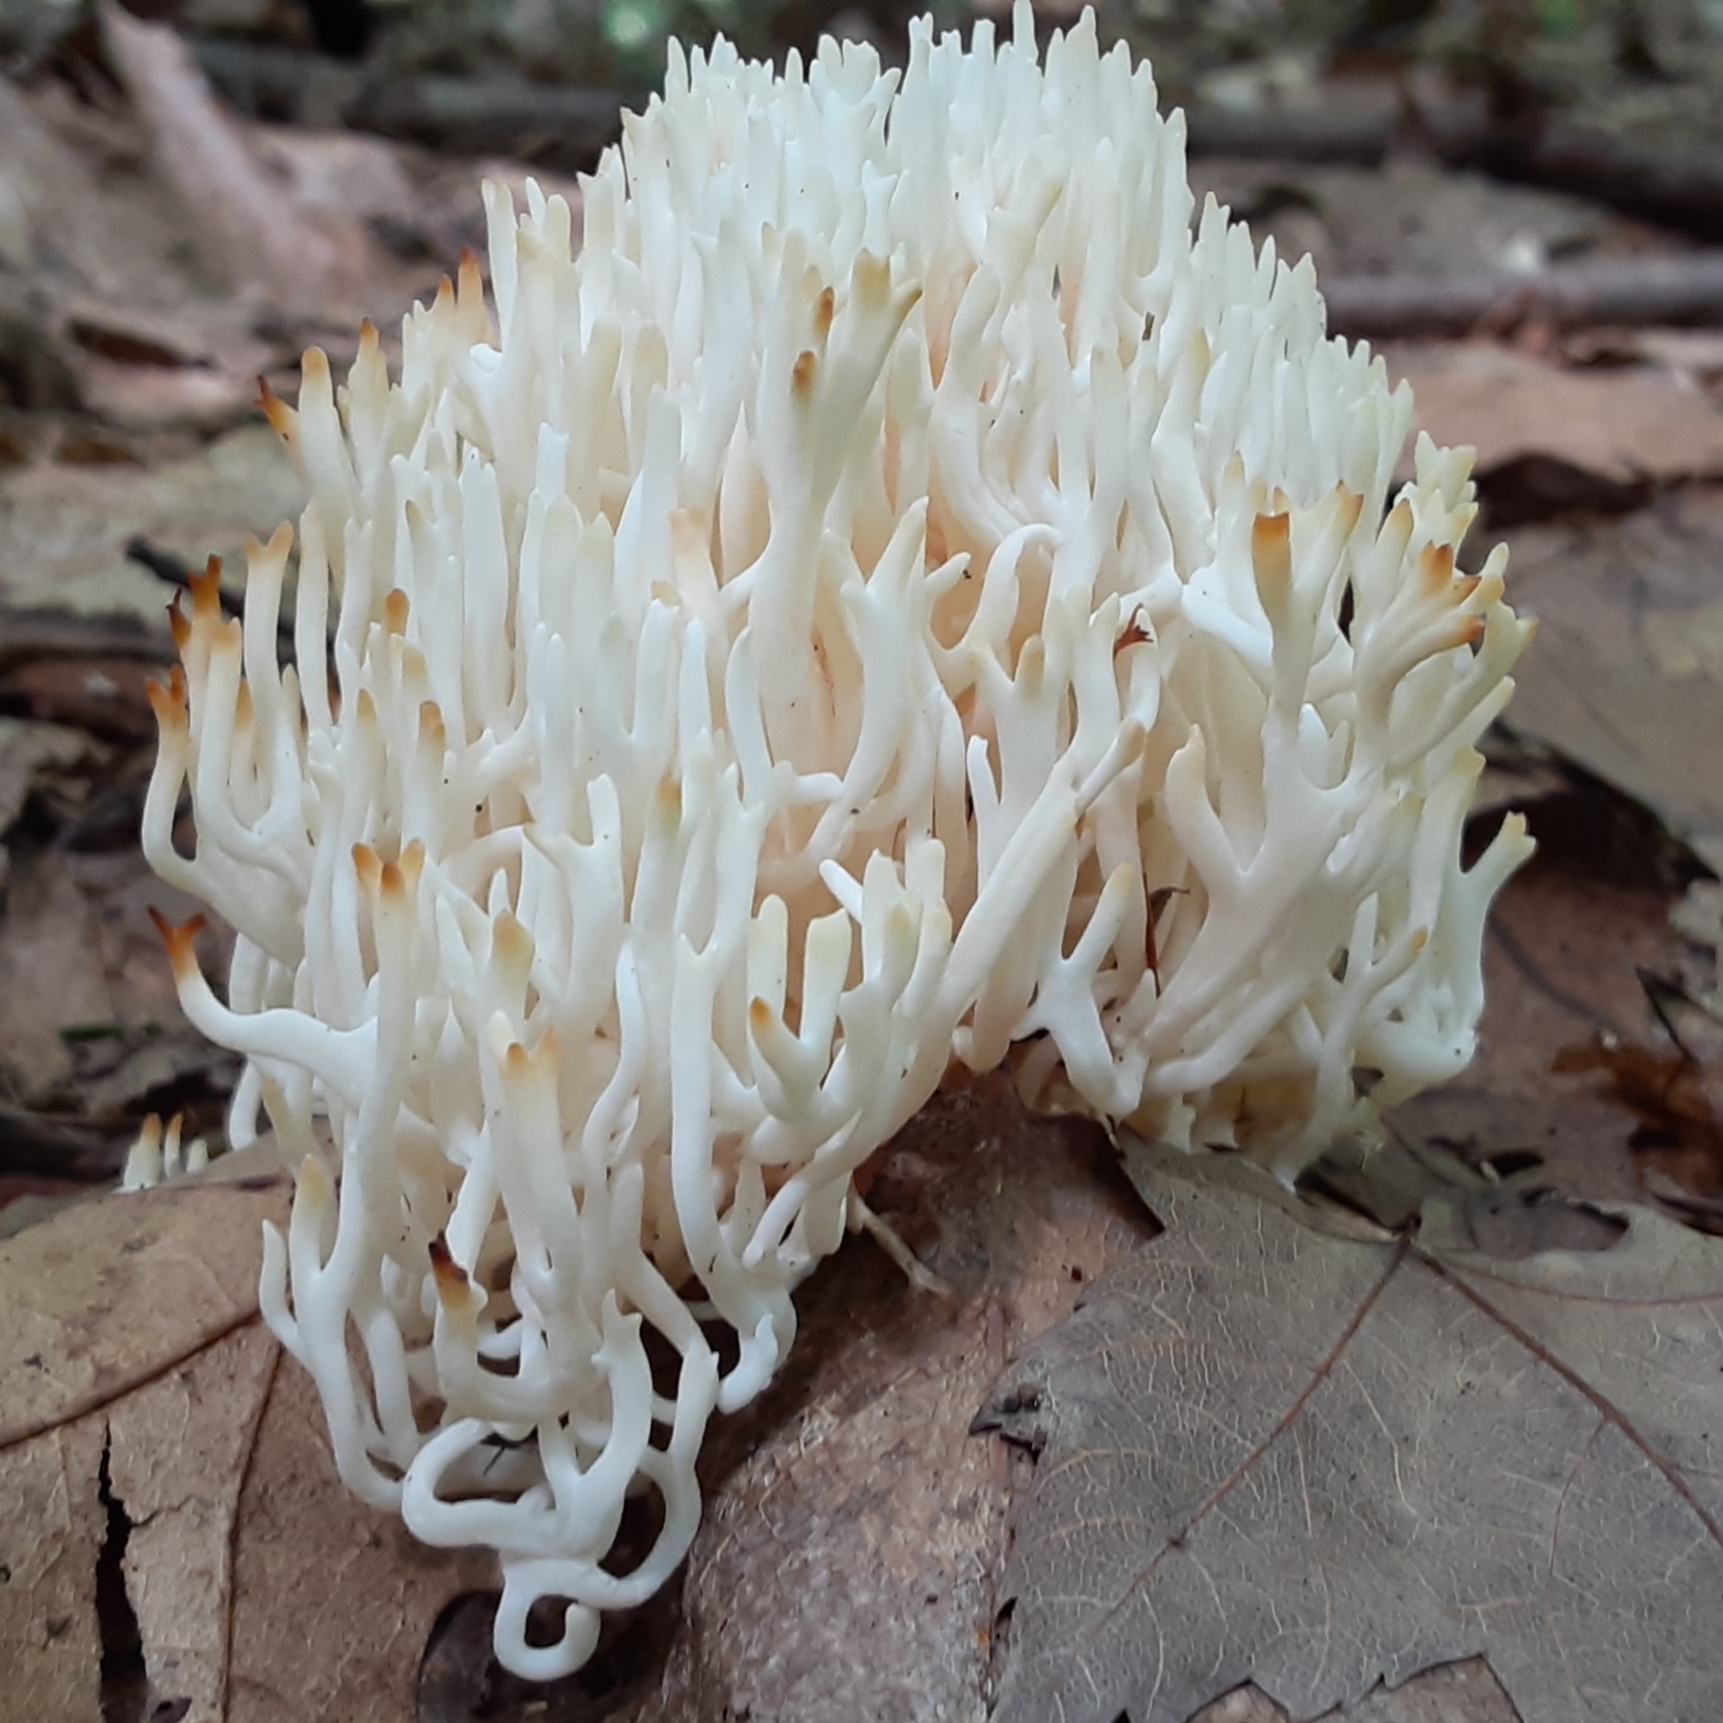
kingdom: Fungi
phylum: Basidiomycota
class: Agaricomycetes
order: Agaricales
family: Clavariaceae
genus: Ramariopsis
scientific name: Ramariopsis kunzei
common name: Ivory coral
